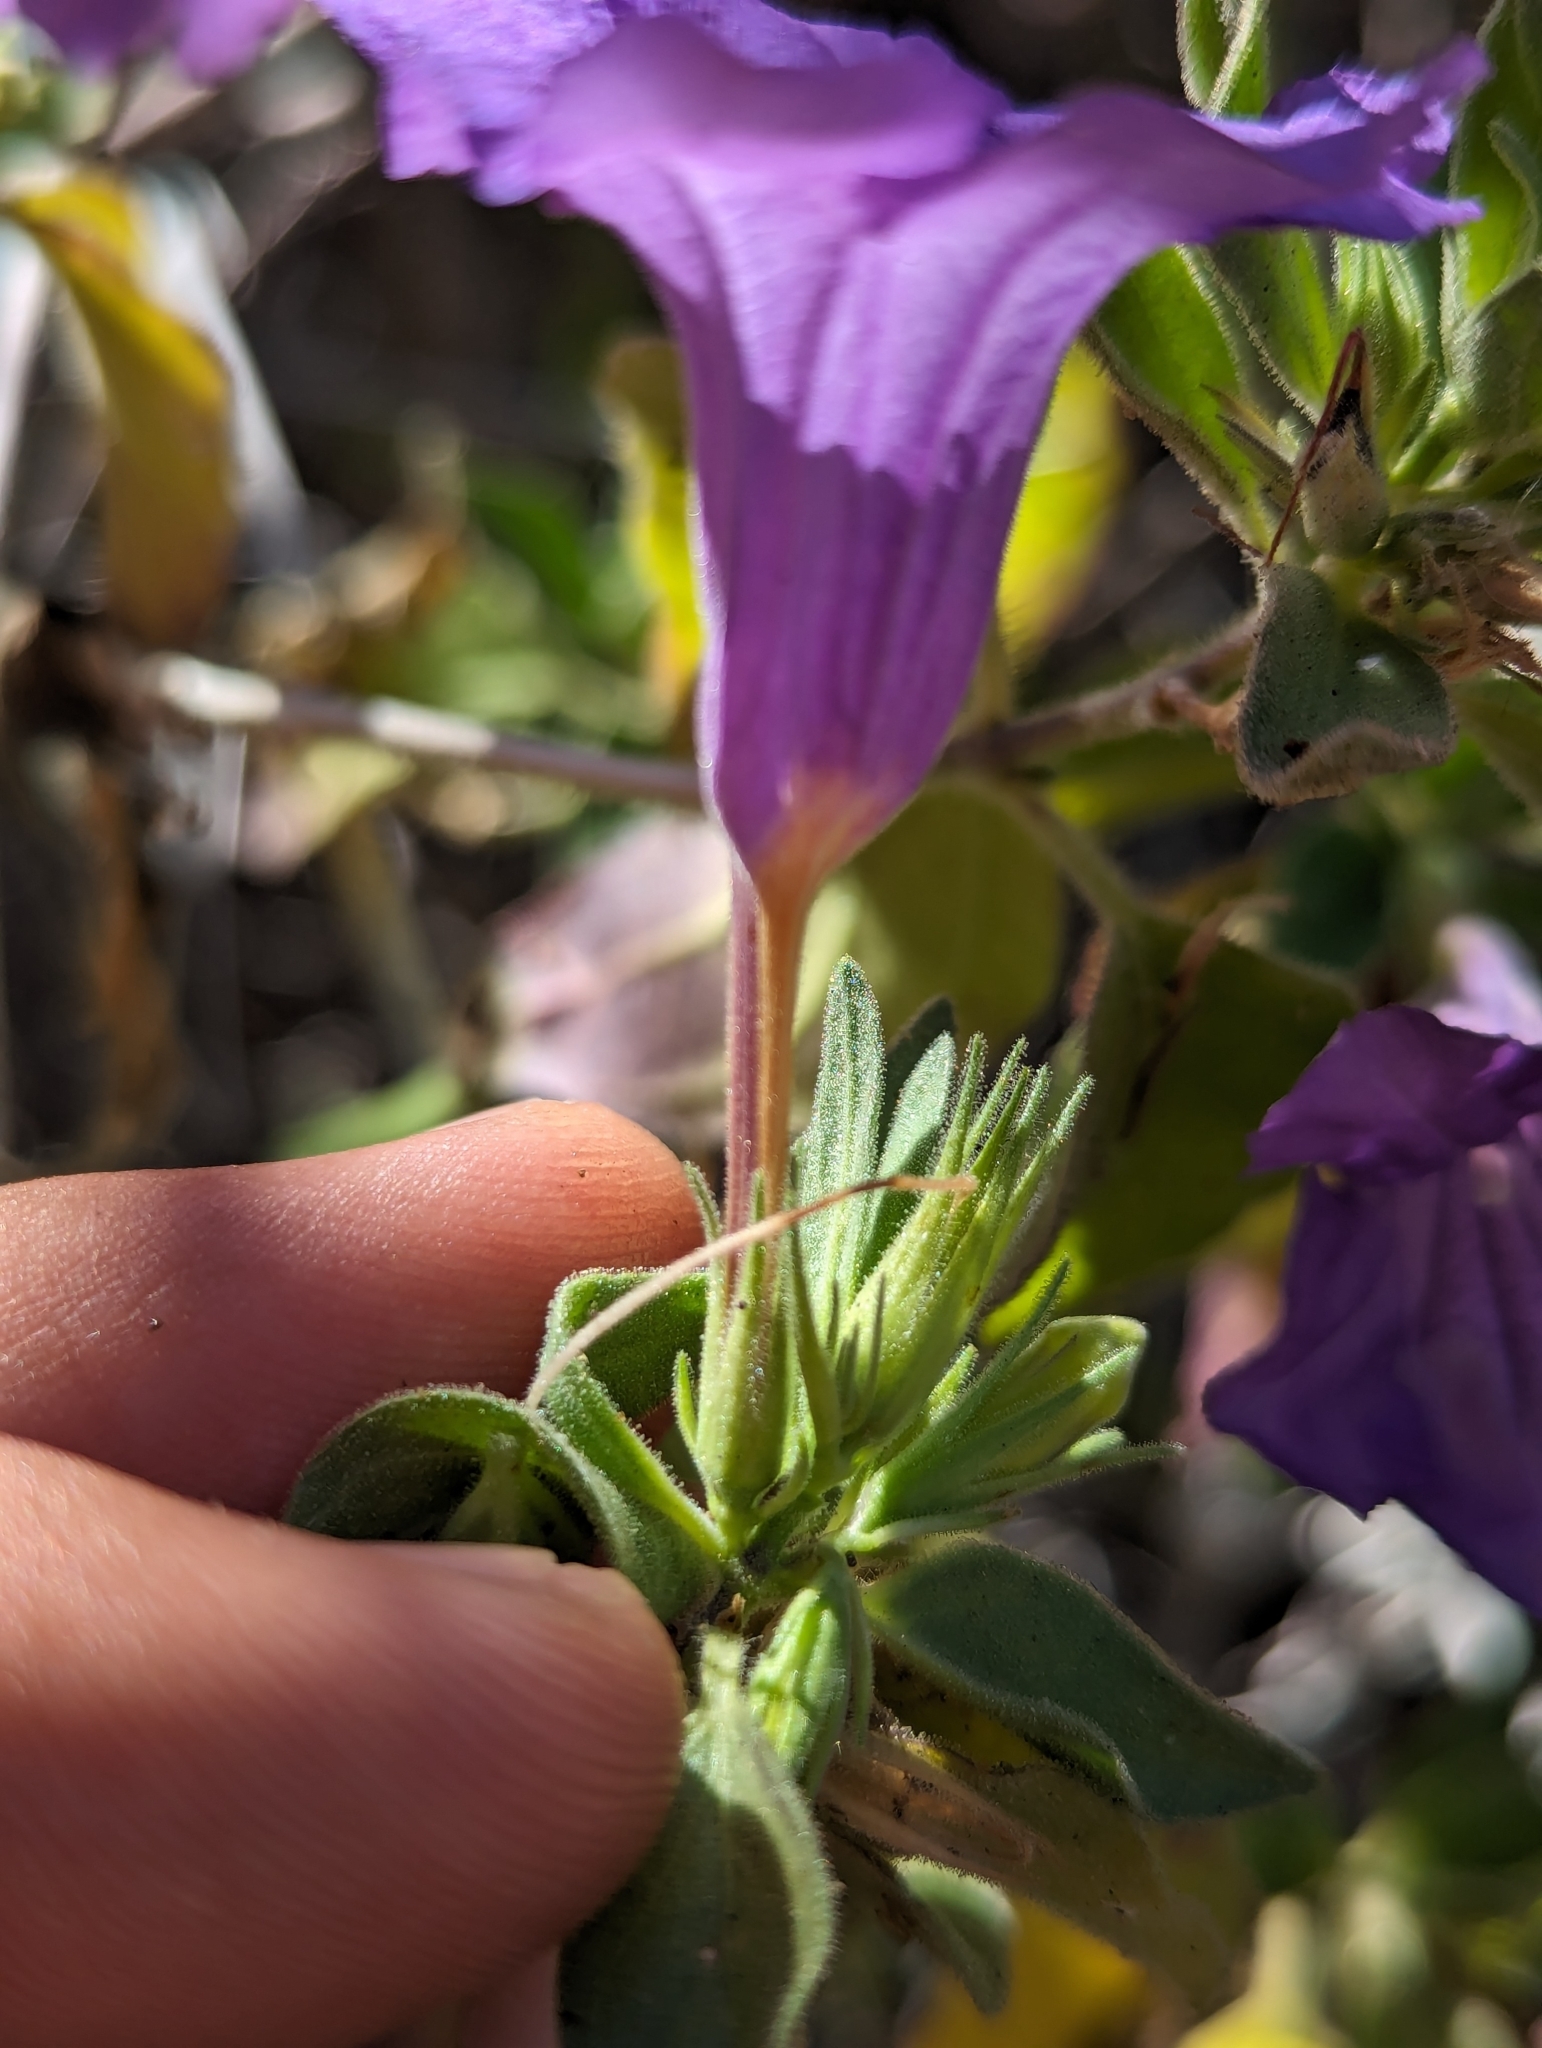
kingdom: Plantae
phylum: Tracheophyta
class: Magnoliopsida
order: Lamiales
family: Acanthaceae
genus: Ruellia
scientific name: Ruellia californica
